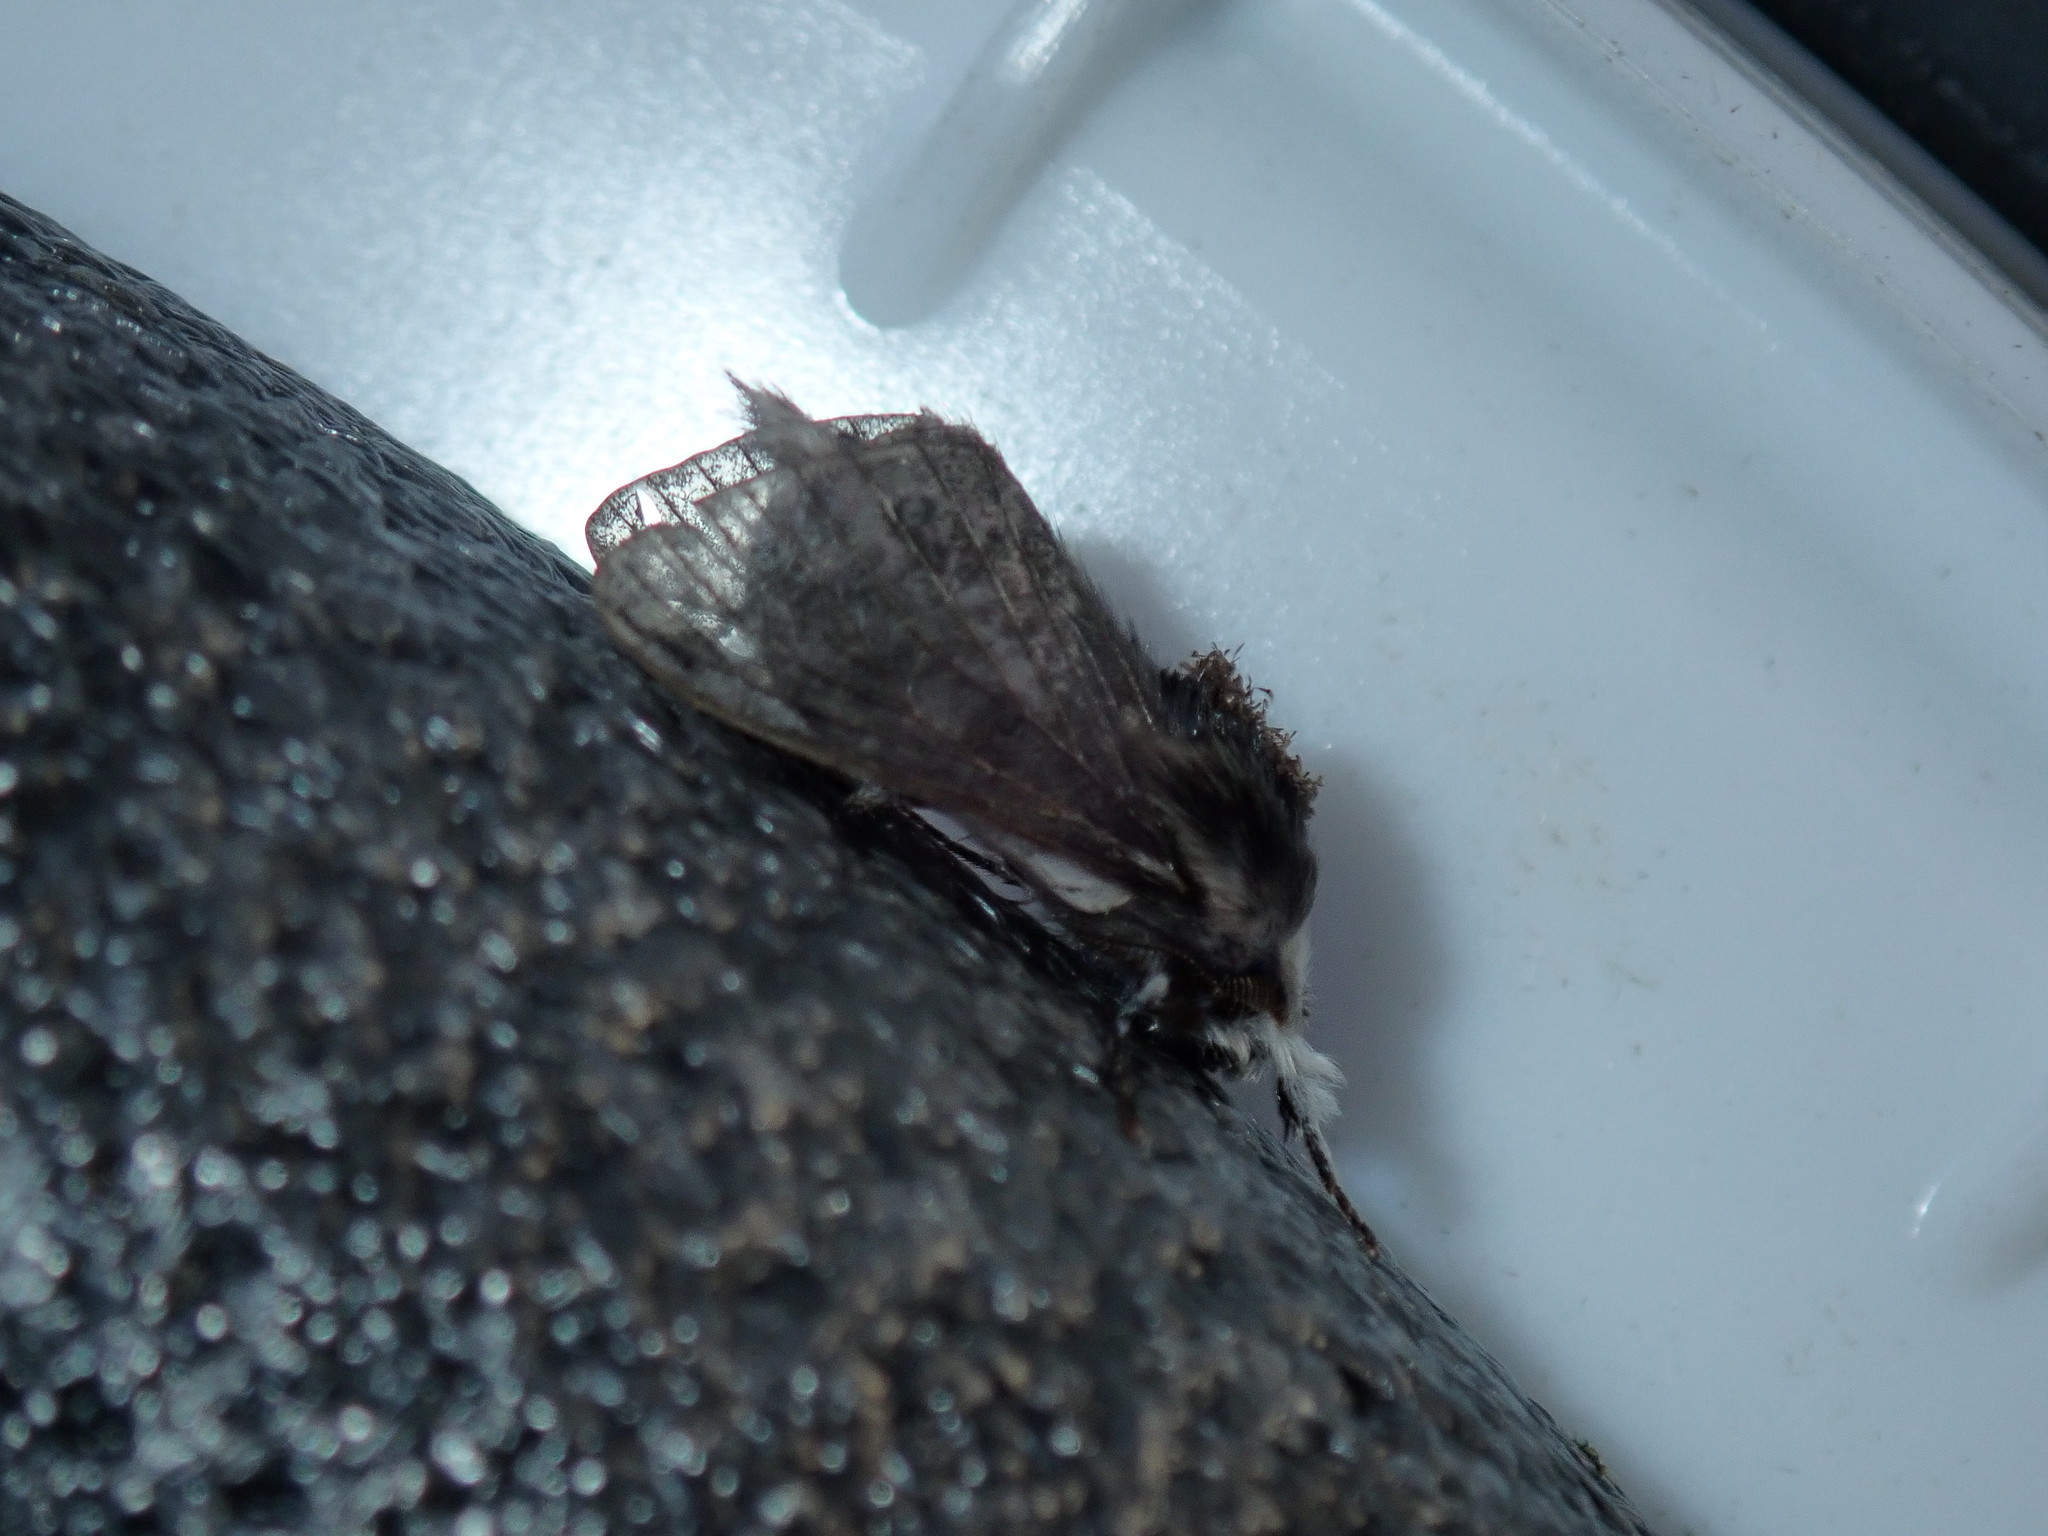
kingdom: Animalia
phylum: Arthropoda
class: Insecta
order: Lepidoptera
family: Lasiocampidae
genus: Tolype
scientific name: Tolype laricis
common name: Larch tolype moth
